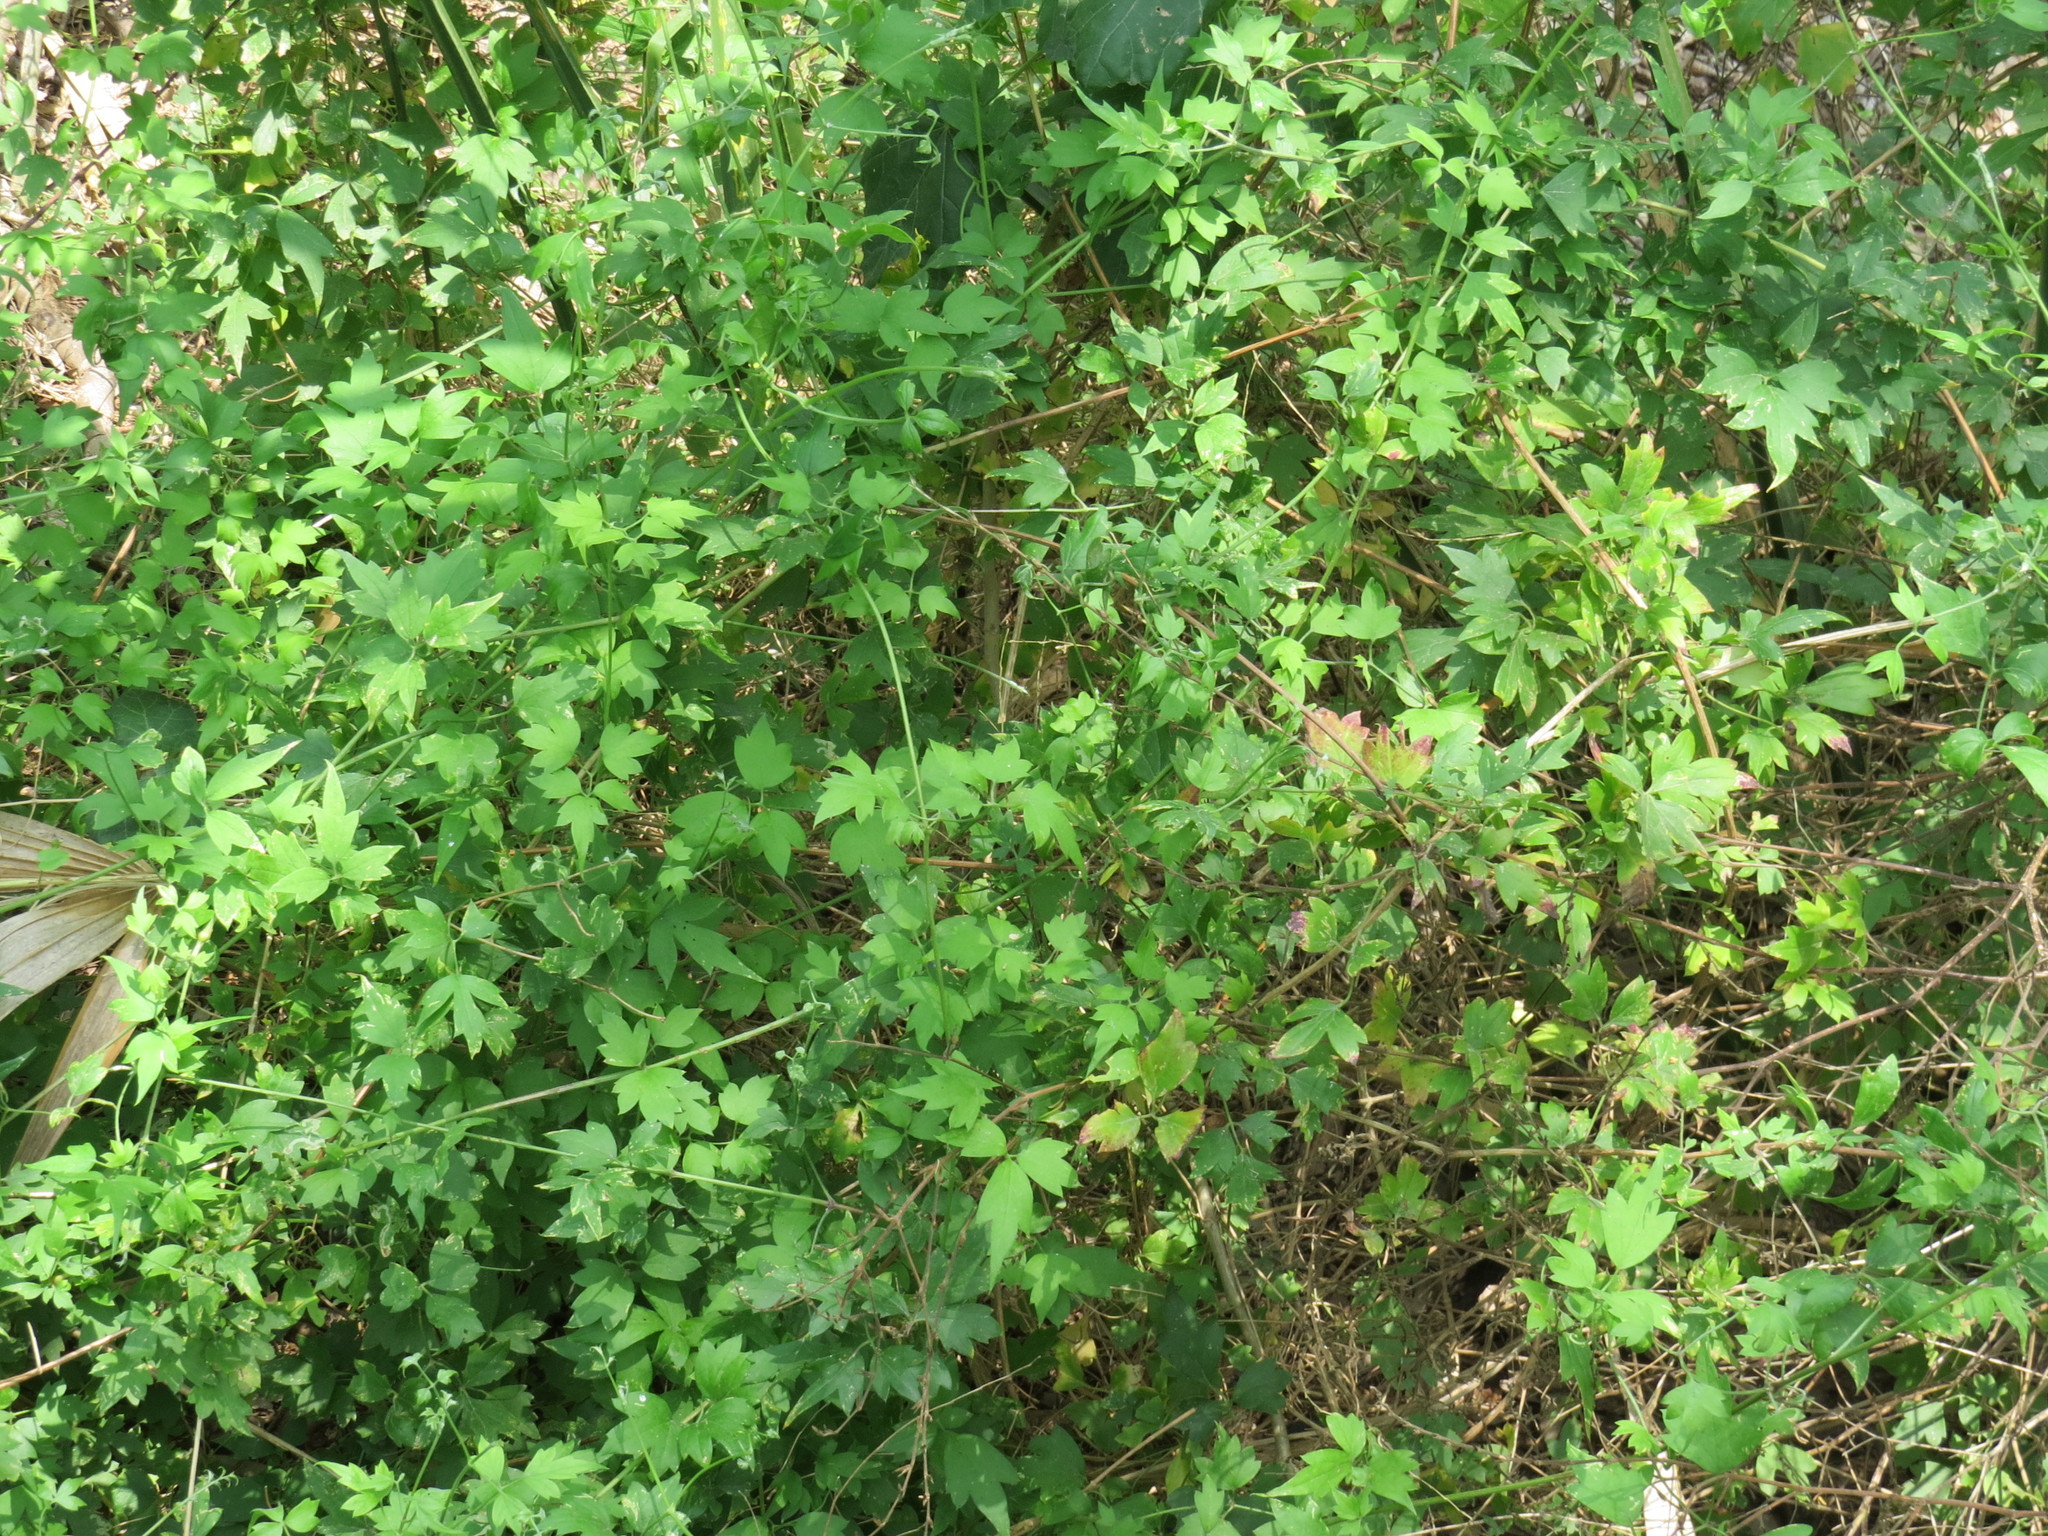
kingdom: Plantae
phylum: Tracheophyta
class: Magnoliopsida
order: Ranunculales
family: Ranunculaceae
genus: Clematis
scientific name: Clematis drummondii
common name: Texas virgin's bower
